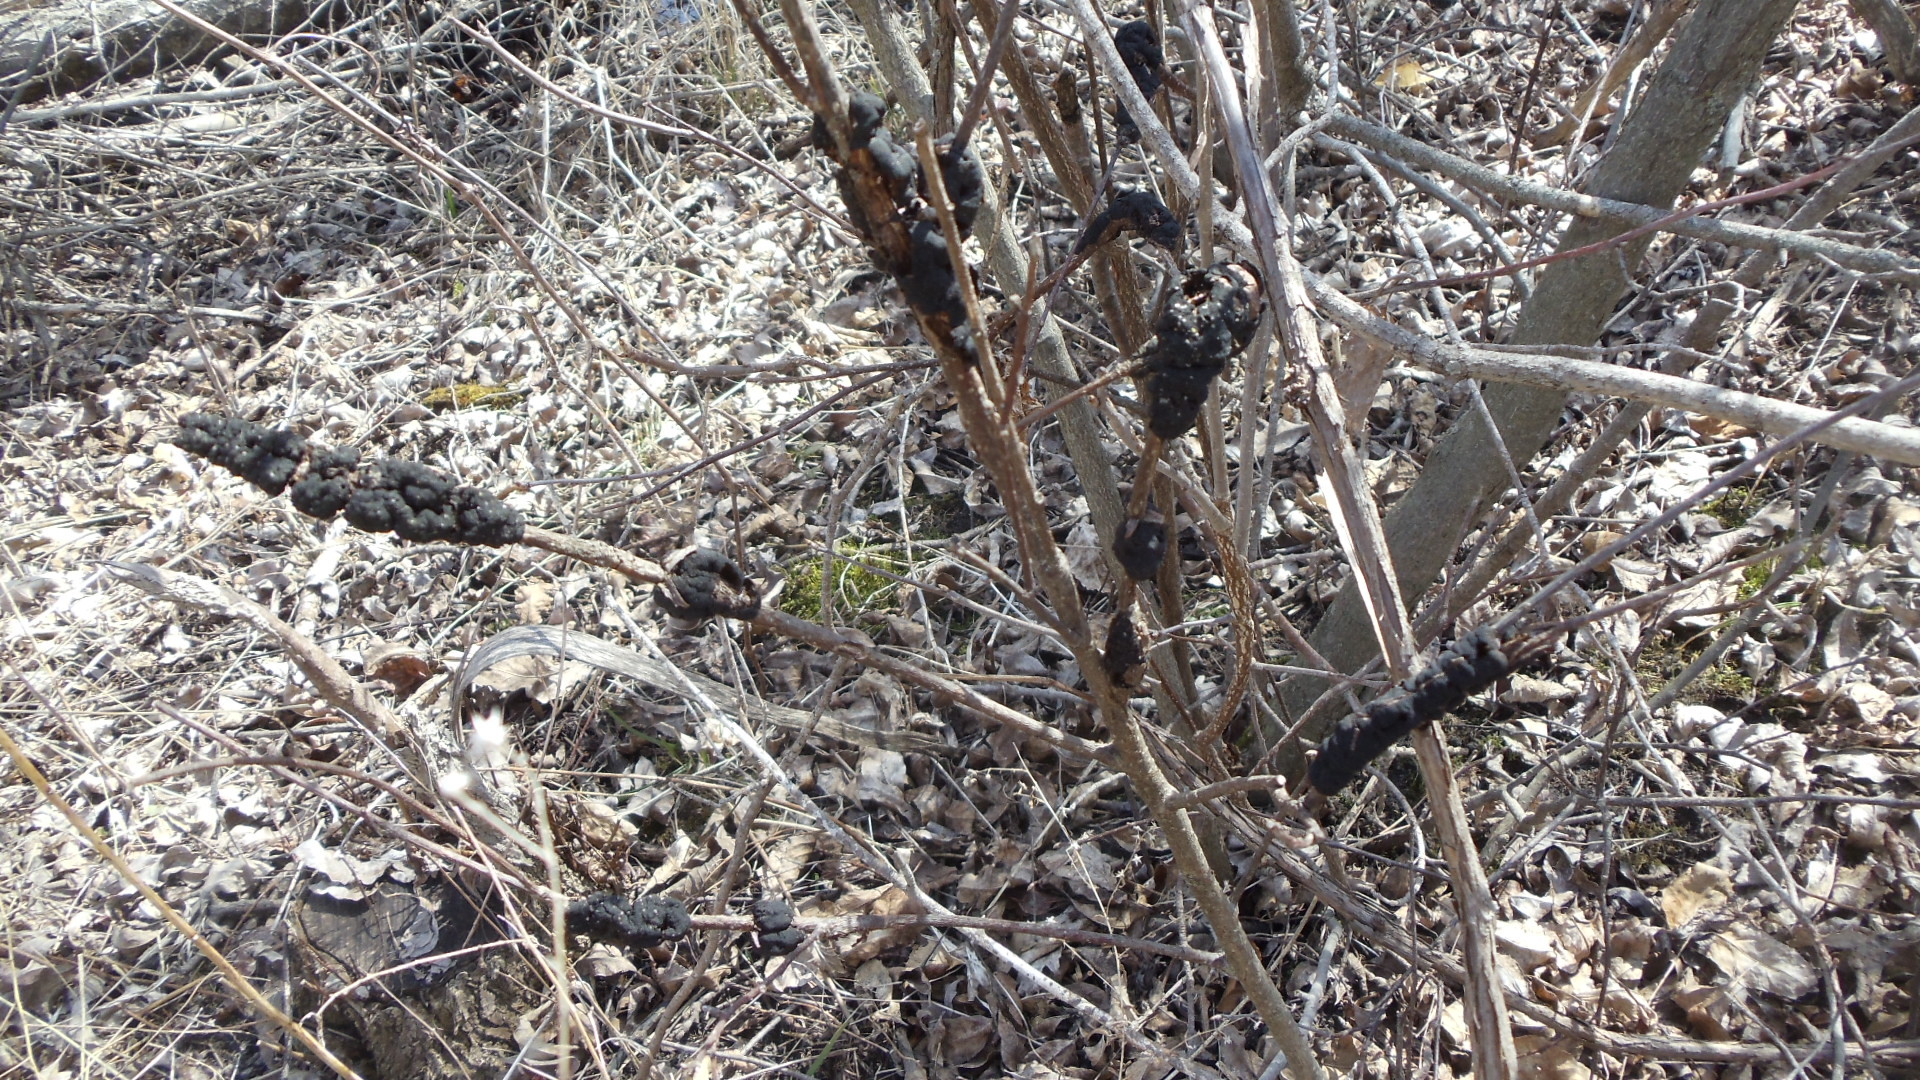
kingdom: Fungi
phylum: Ascomycota
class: Dothideomycetes
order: Venturiales
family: Venturiaceae
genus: Apiosporina
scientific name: Apiosporina morbosa
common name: Black knot
